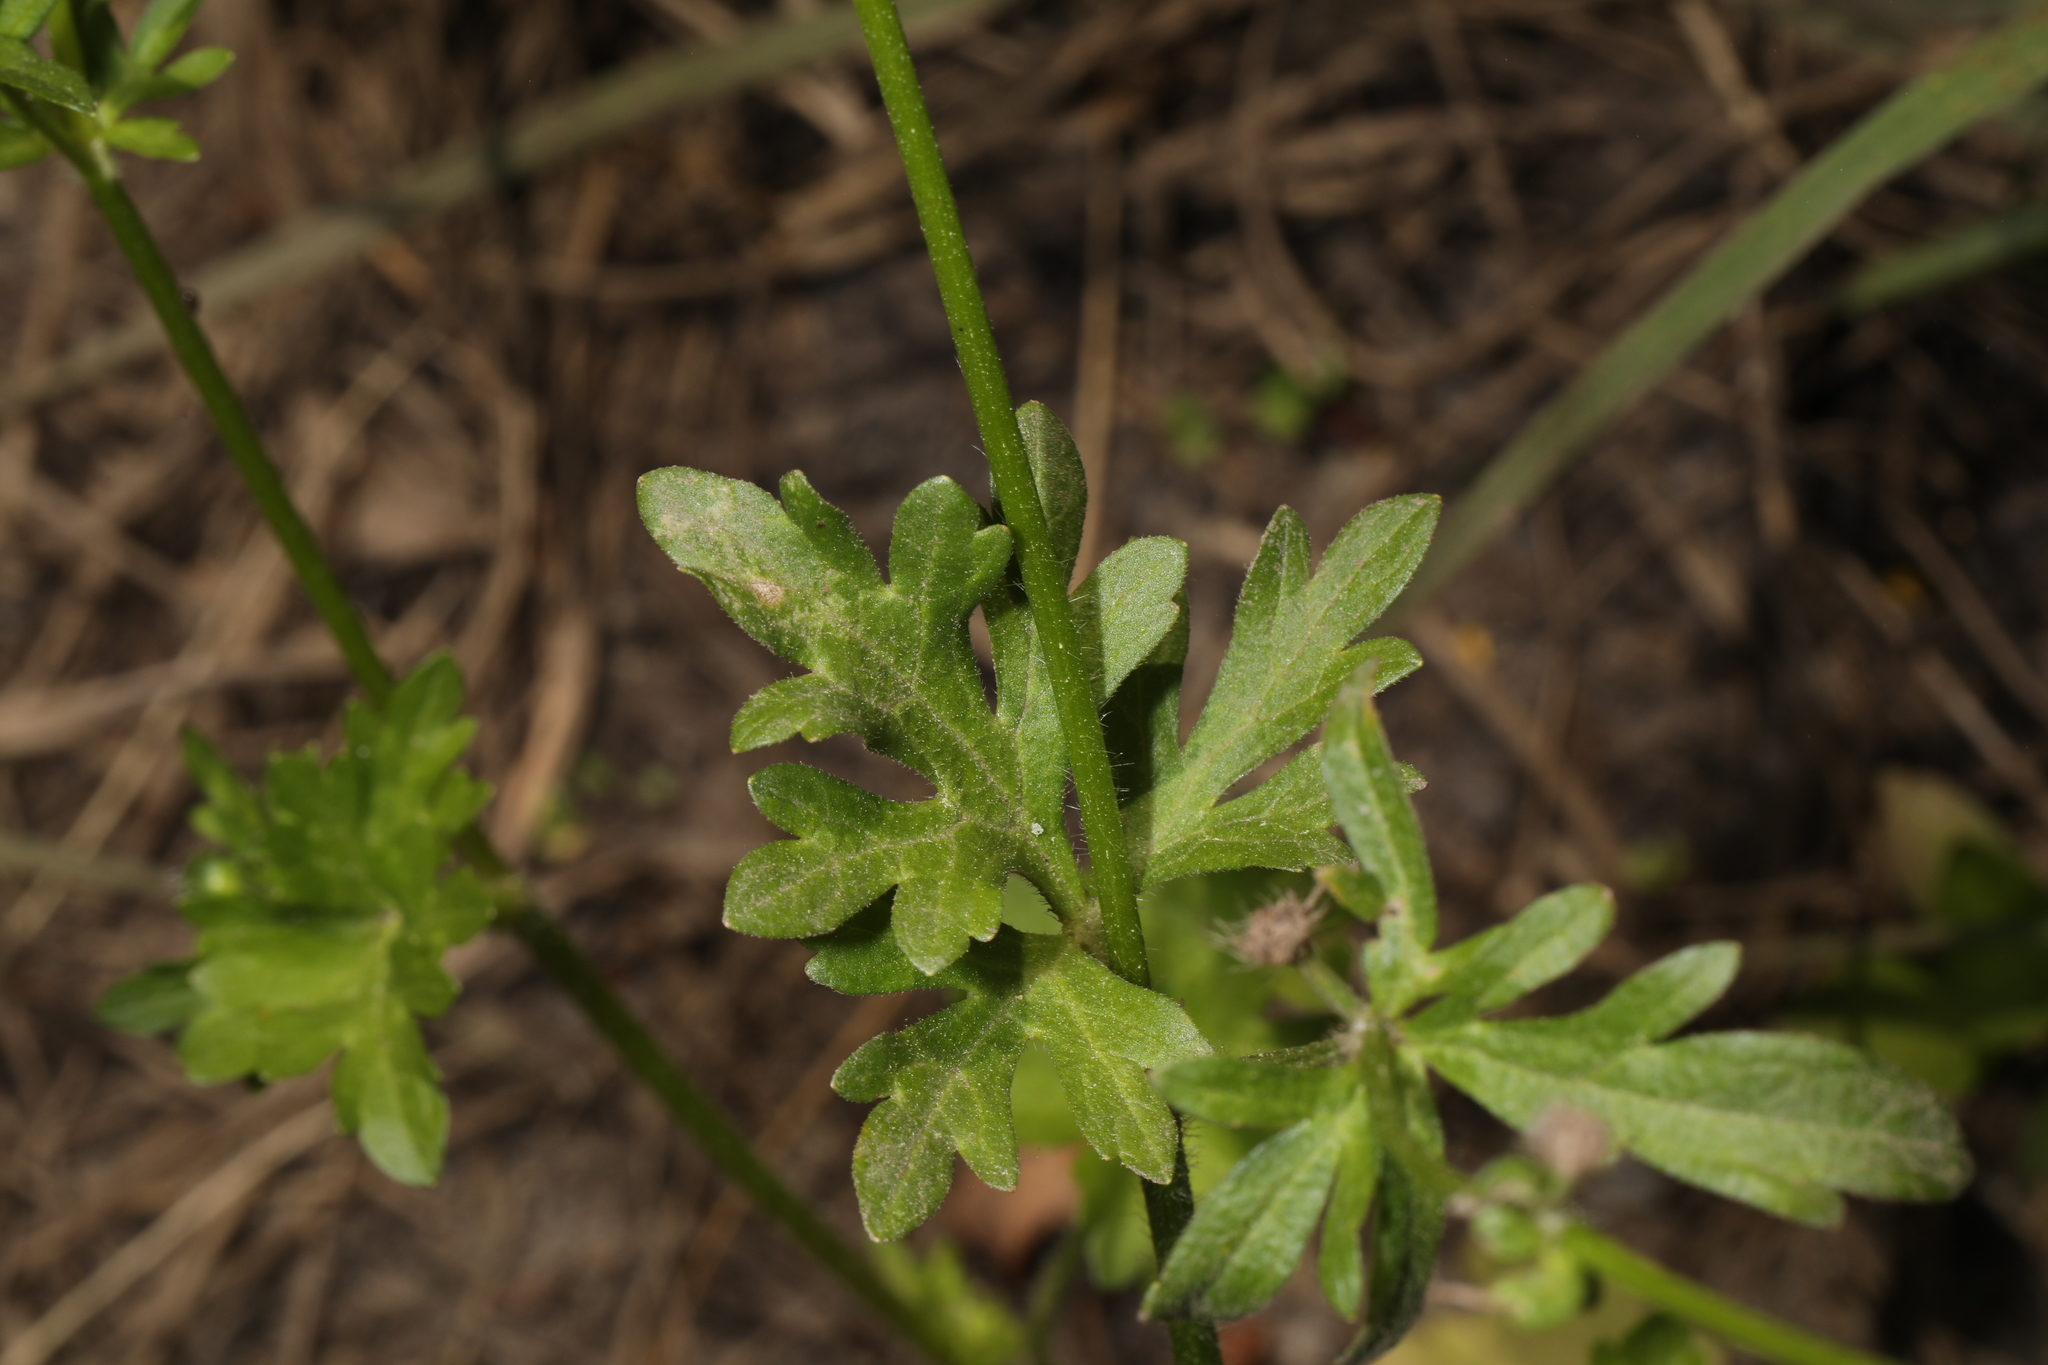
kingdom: Plantae
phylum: Tracheophyta
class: Magnoliopsida
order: Ranunculales
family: Ranunculaceae
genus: Ranunculus
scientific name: Ranunculus bulbosus
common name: Bulbous buttercup
